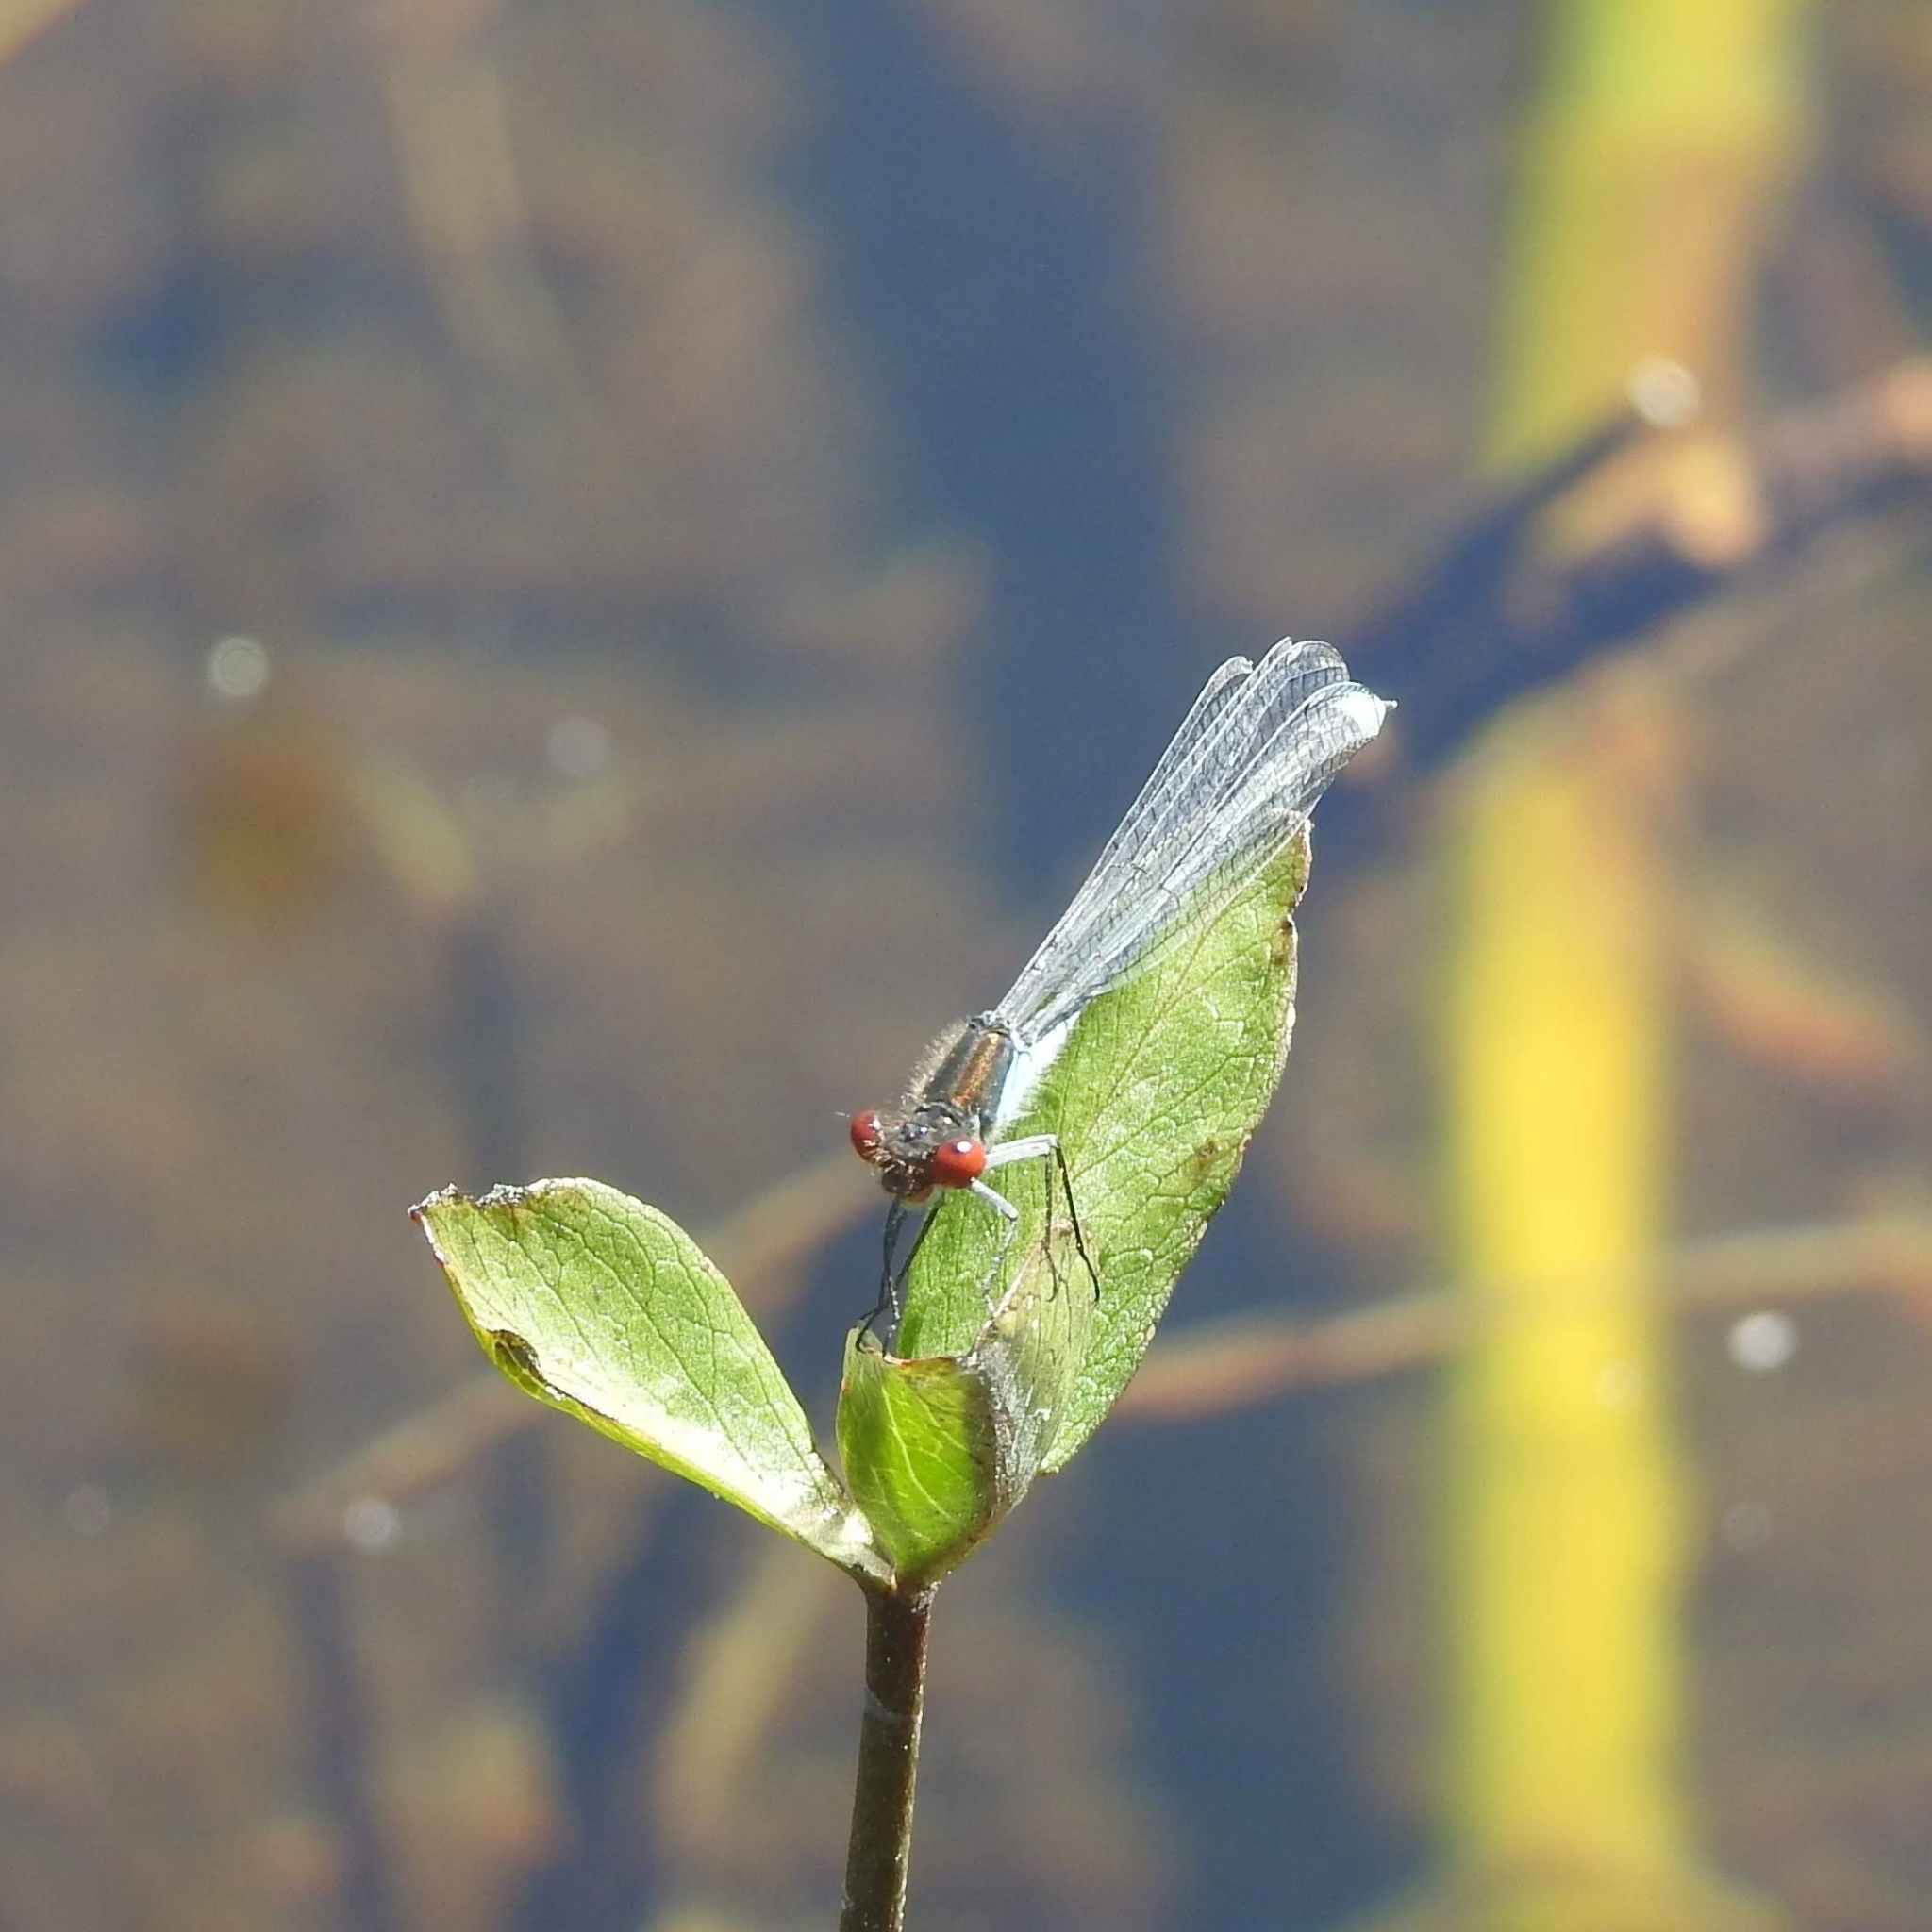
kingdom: Animalia
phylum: Arthropoda
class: Insecta
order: Odonata
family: Coenagrionidae
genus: Erythromma
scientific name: Erythromma najas
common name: Red-eyed damselfly
